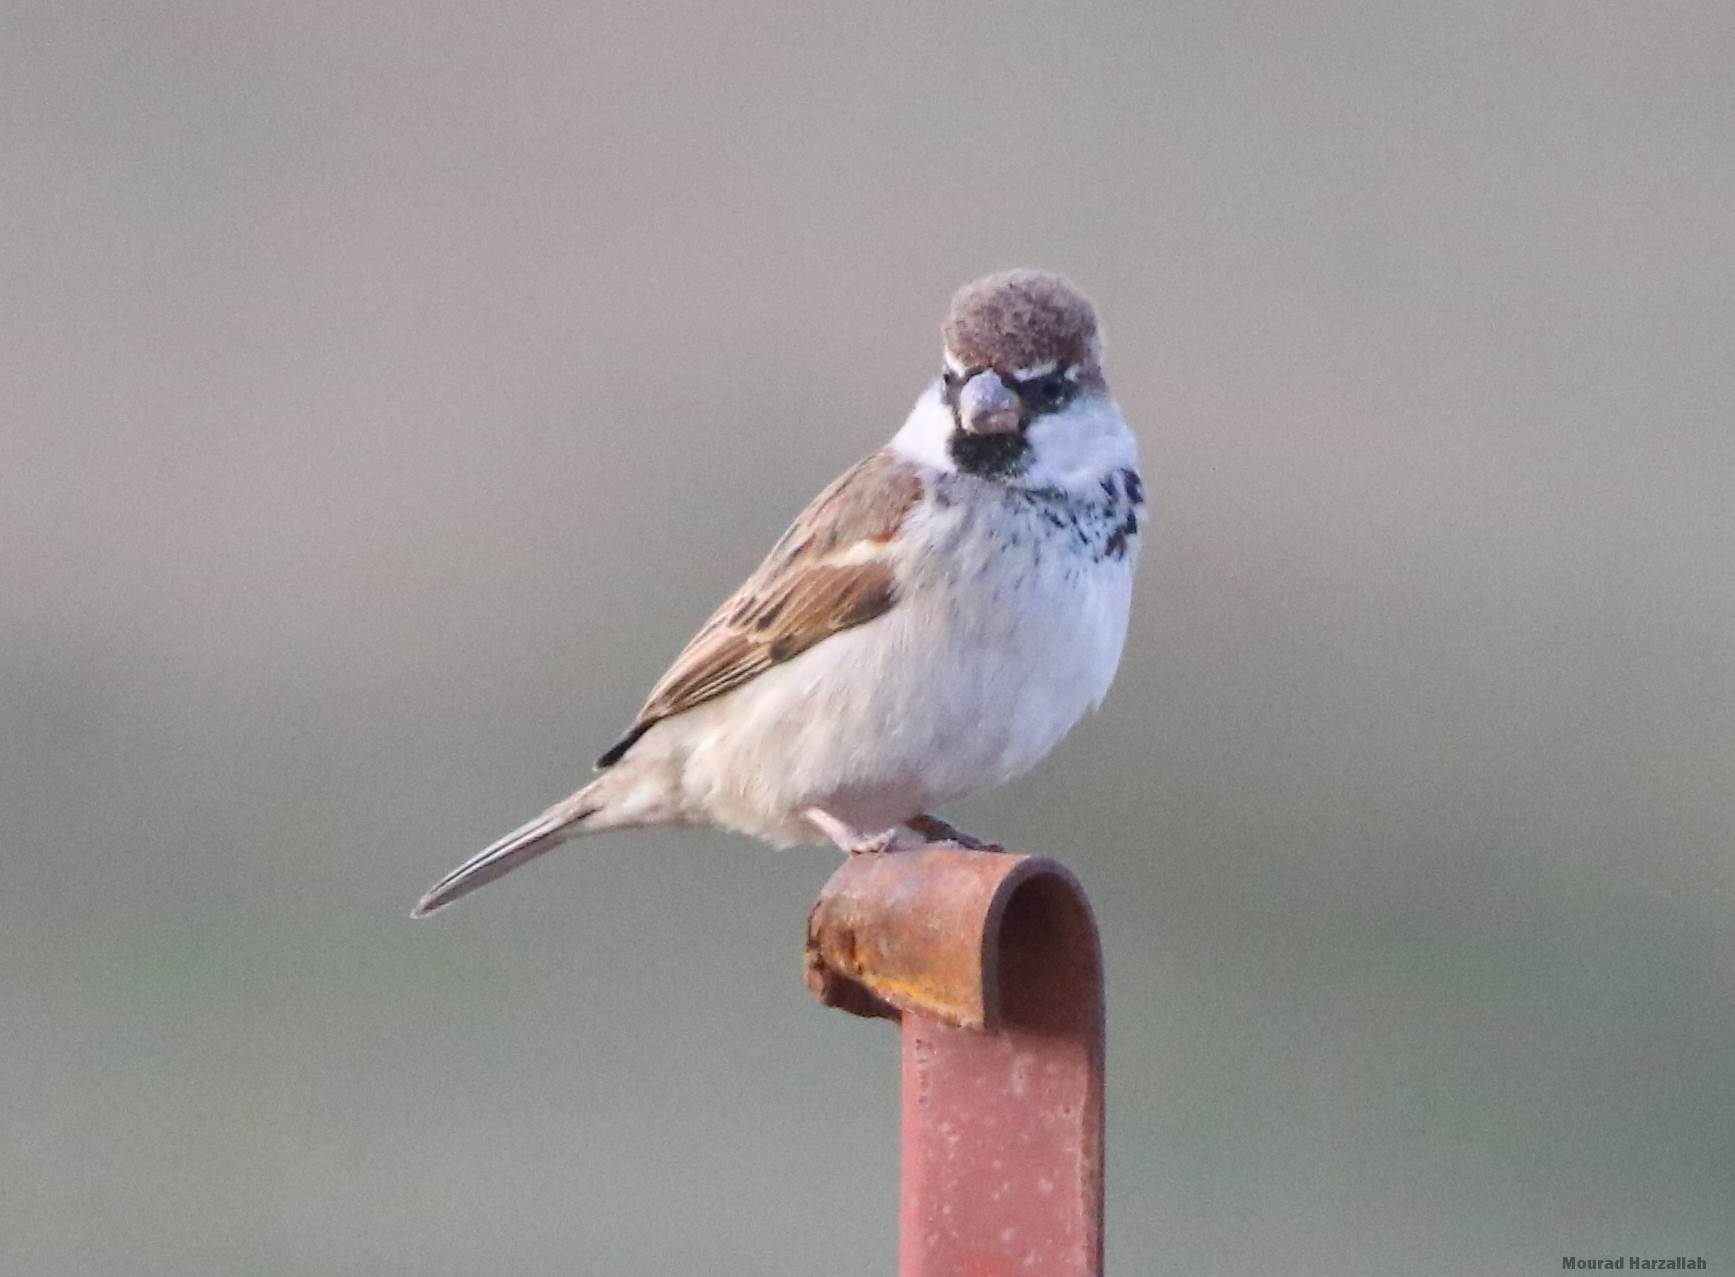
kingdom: Animalia
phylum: Chordata
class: Aves
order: Passeriformes
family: Passeridae
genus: Passer
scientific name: Passer hispaniolensis
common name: Spanish sparrow
